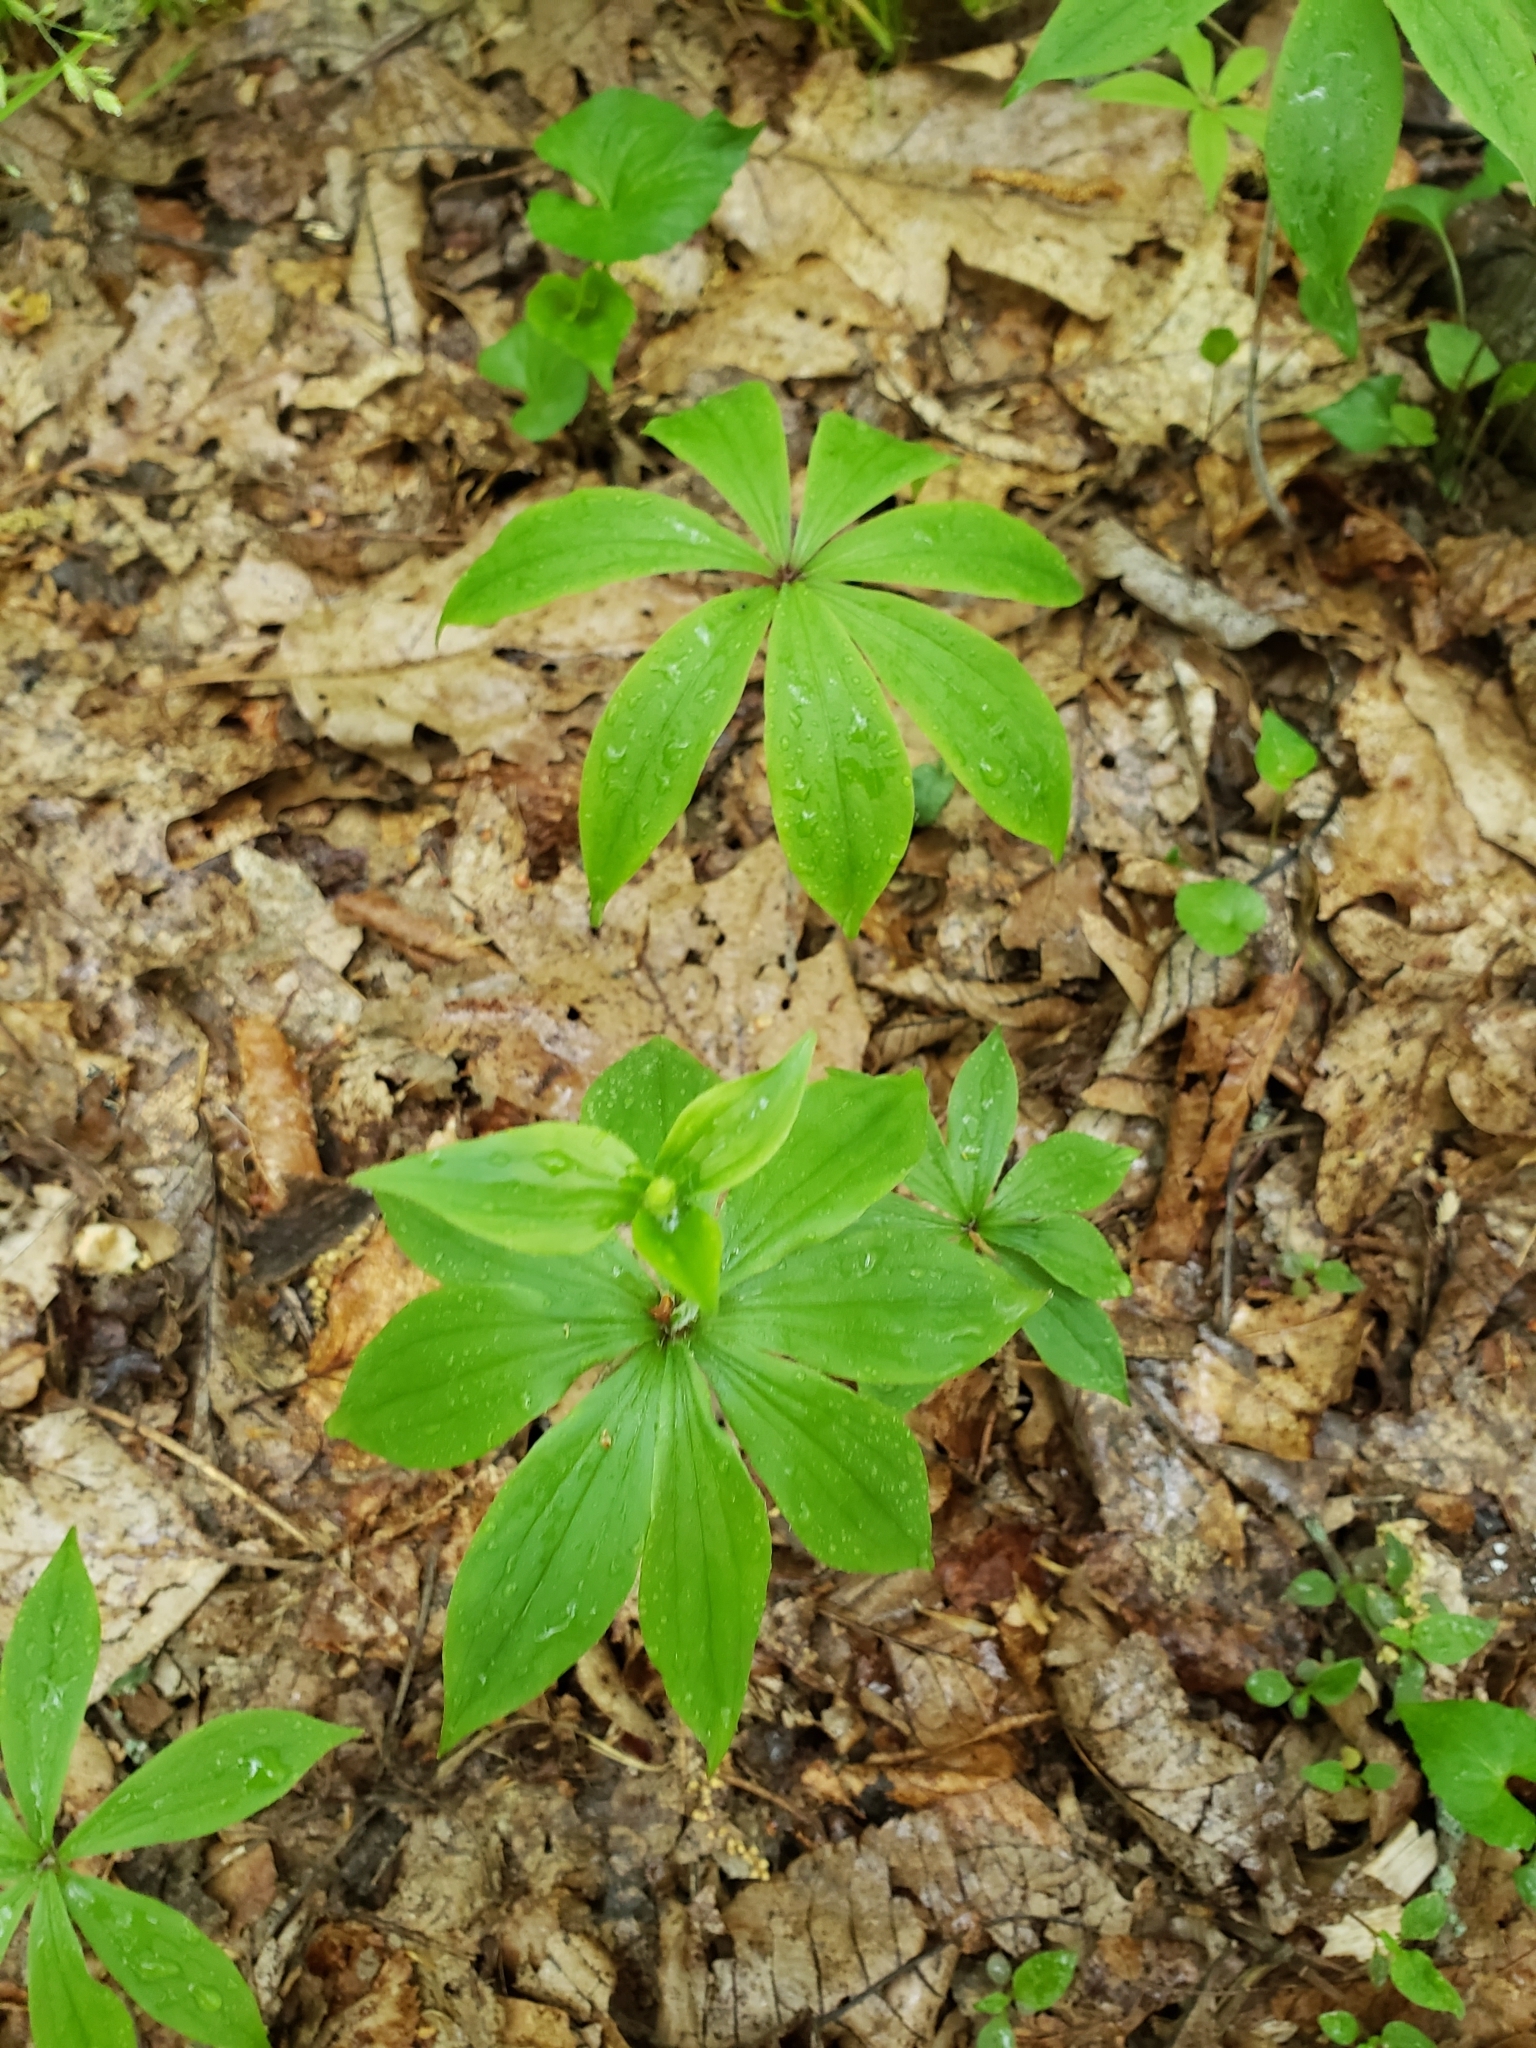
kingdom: Plantae
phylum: Tracheophyta
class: Liliopsida
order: Liliales
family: Liliaceae
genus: Medeola
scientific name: Medeola virginiana
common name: Indian cucumber-root
